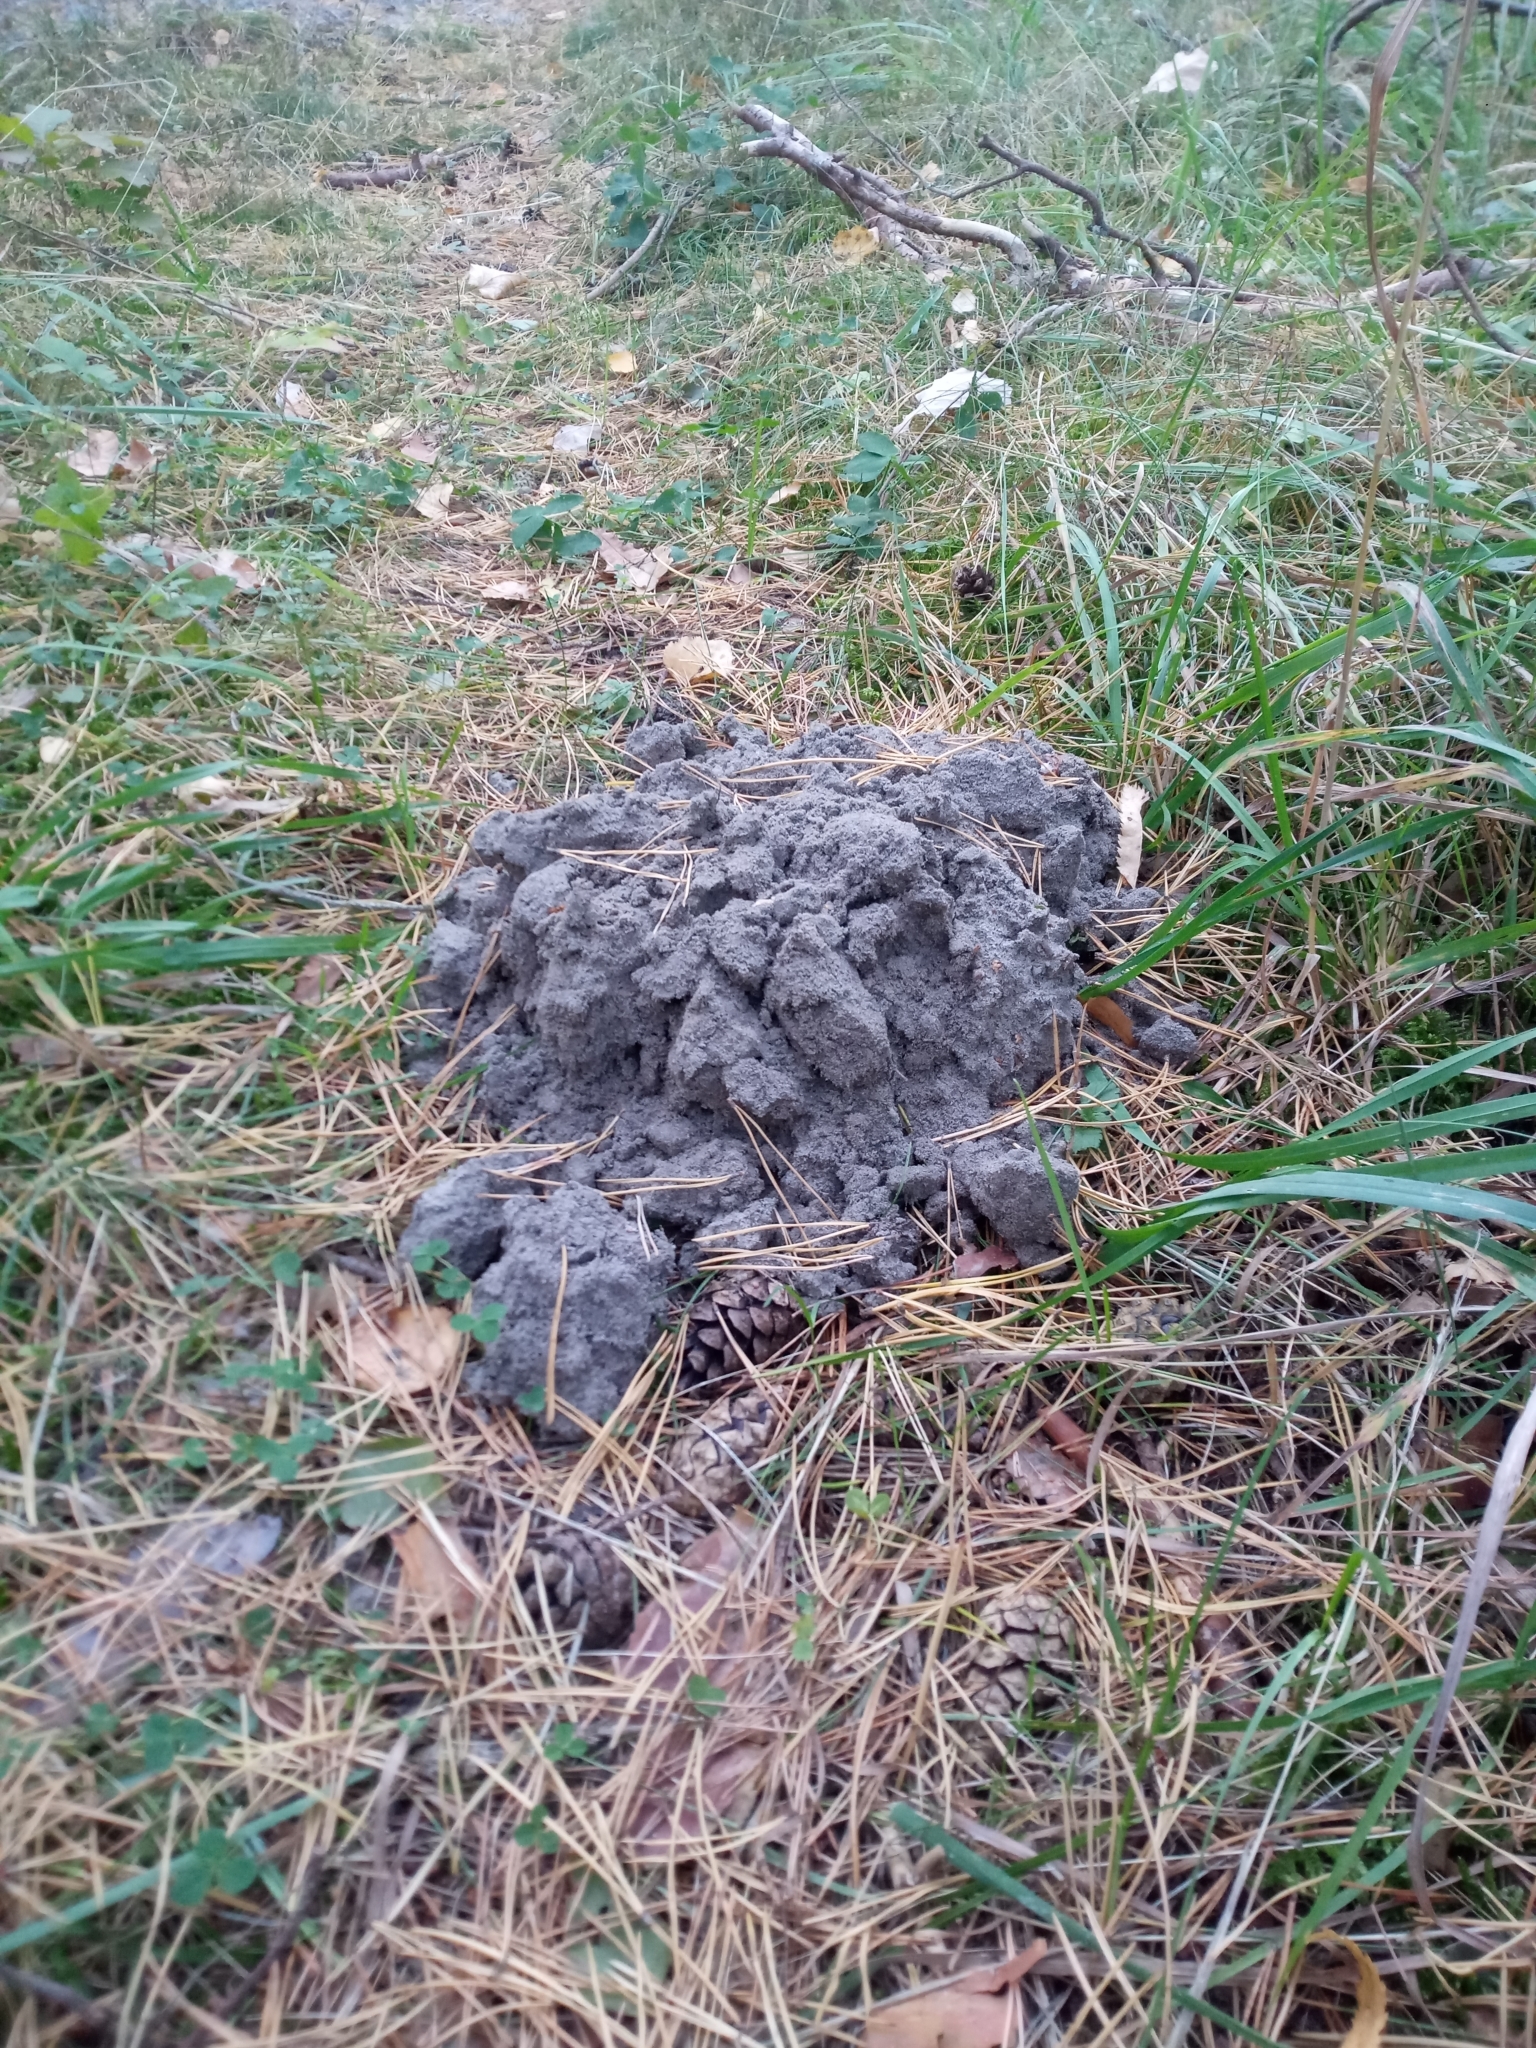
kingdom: Animalia
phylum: Chordata
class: Mammalia
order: Soricomorpha
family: Talpidae
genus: Talpa
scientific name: Talpa europaea
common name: European mole
